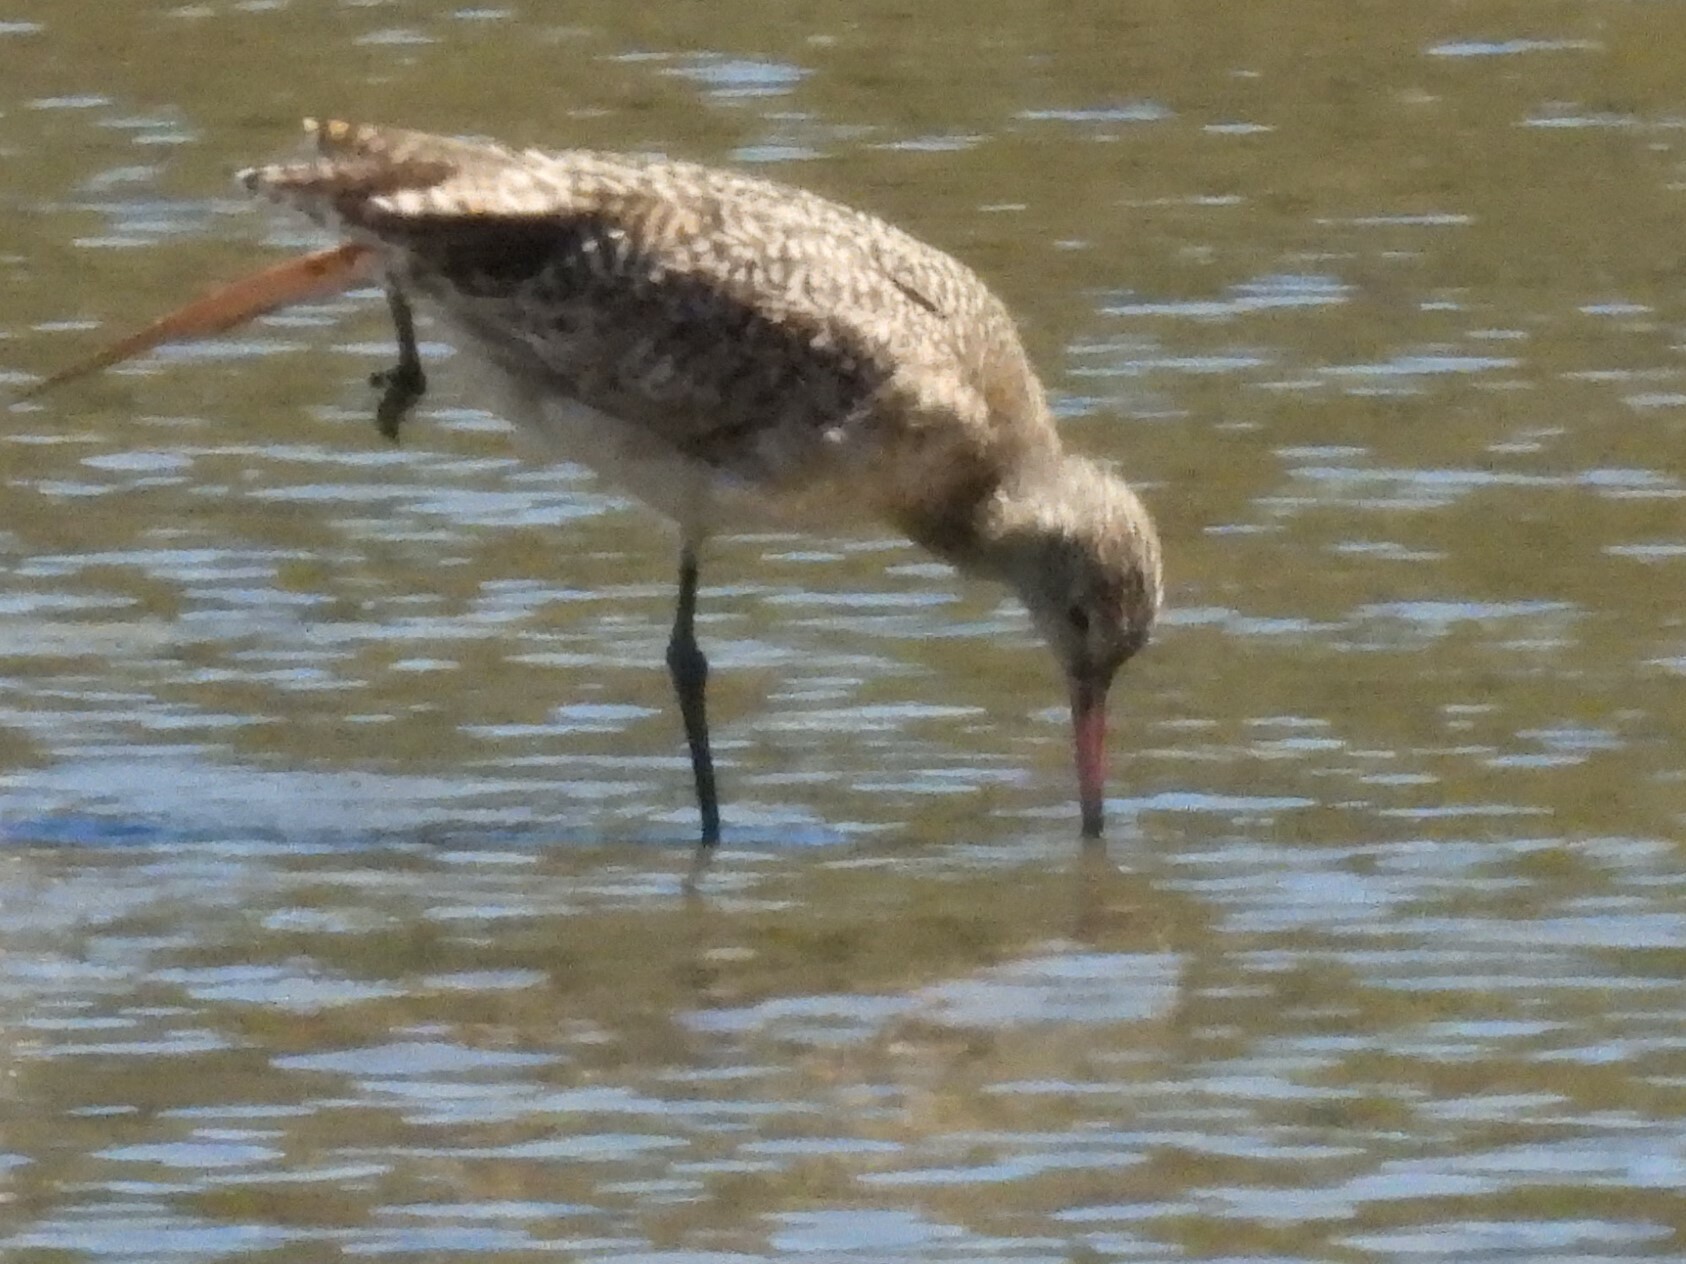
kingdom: Animalia
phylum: Chordata
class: Aves
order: Charadriiformes
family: Scolopacidae
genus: Limosa
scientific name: Limosa fedoa
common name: Marbled godwit
